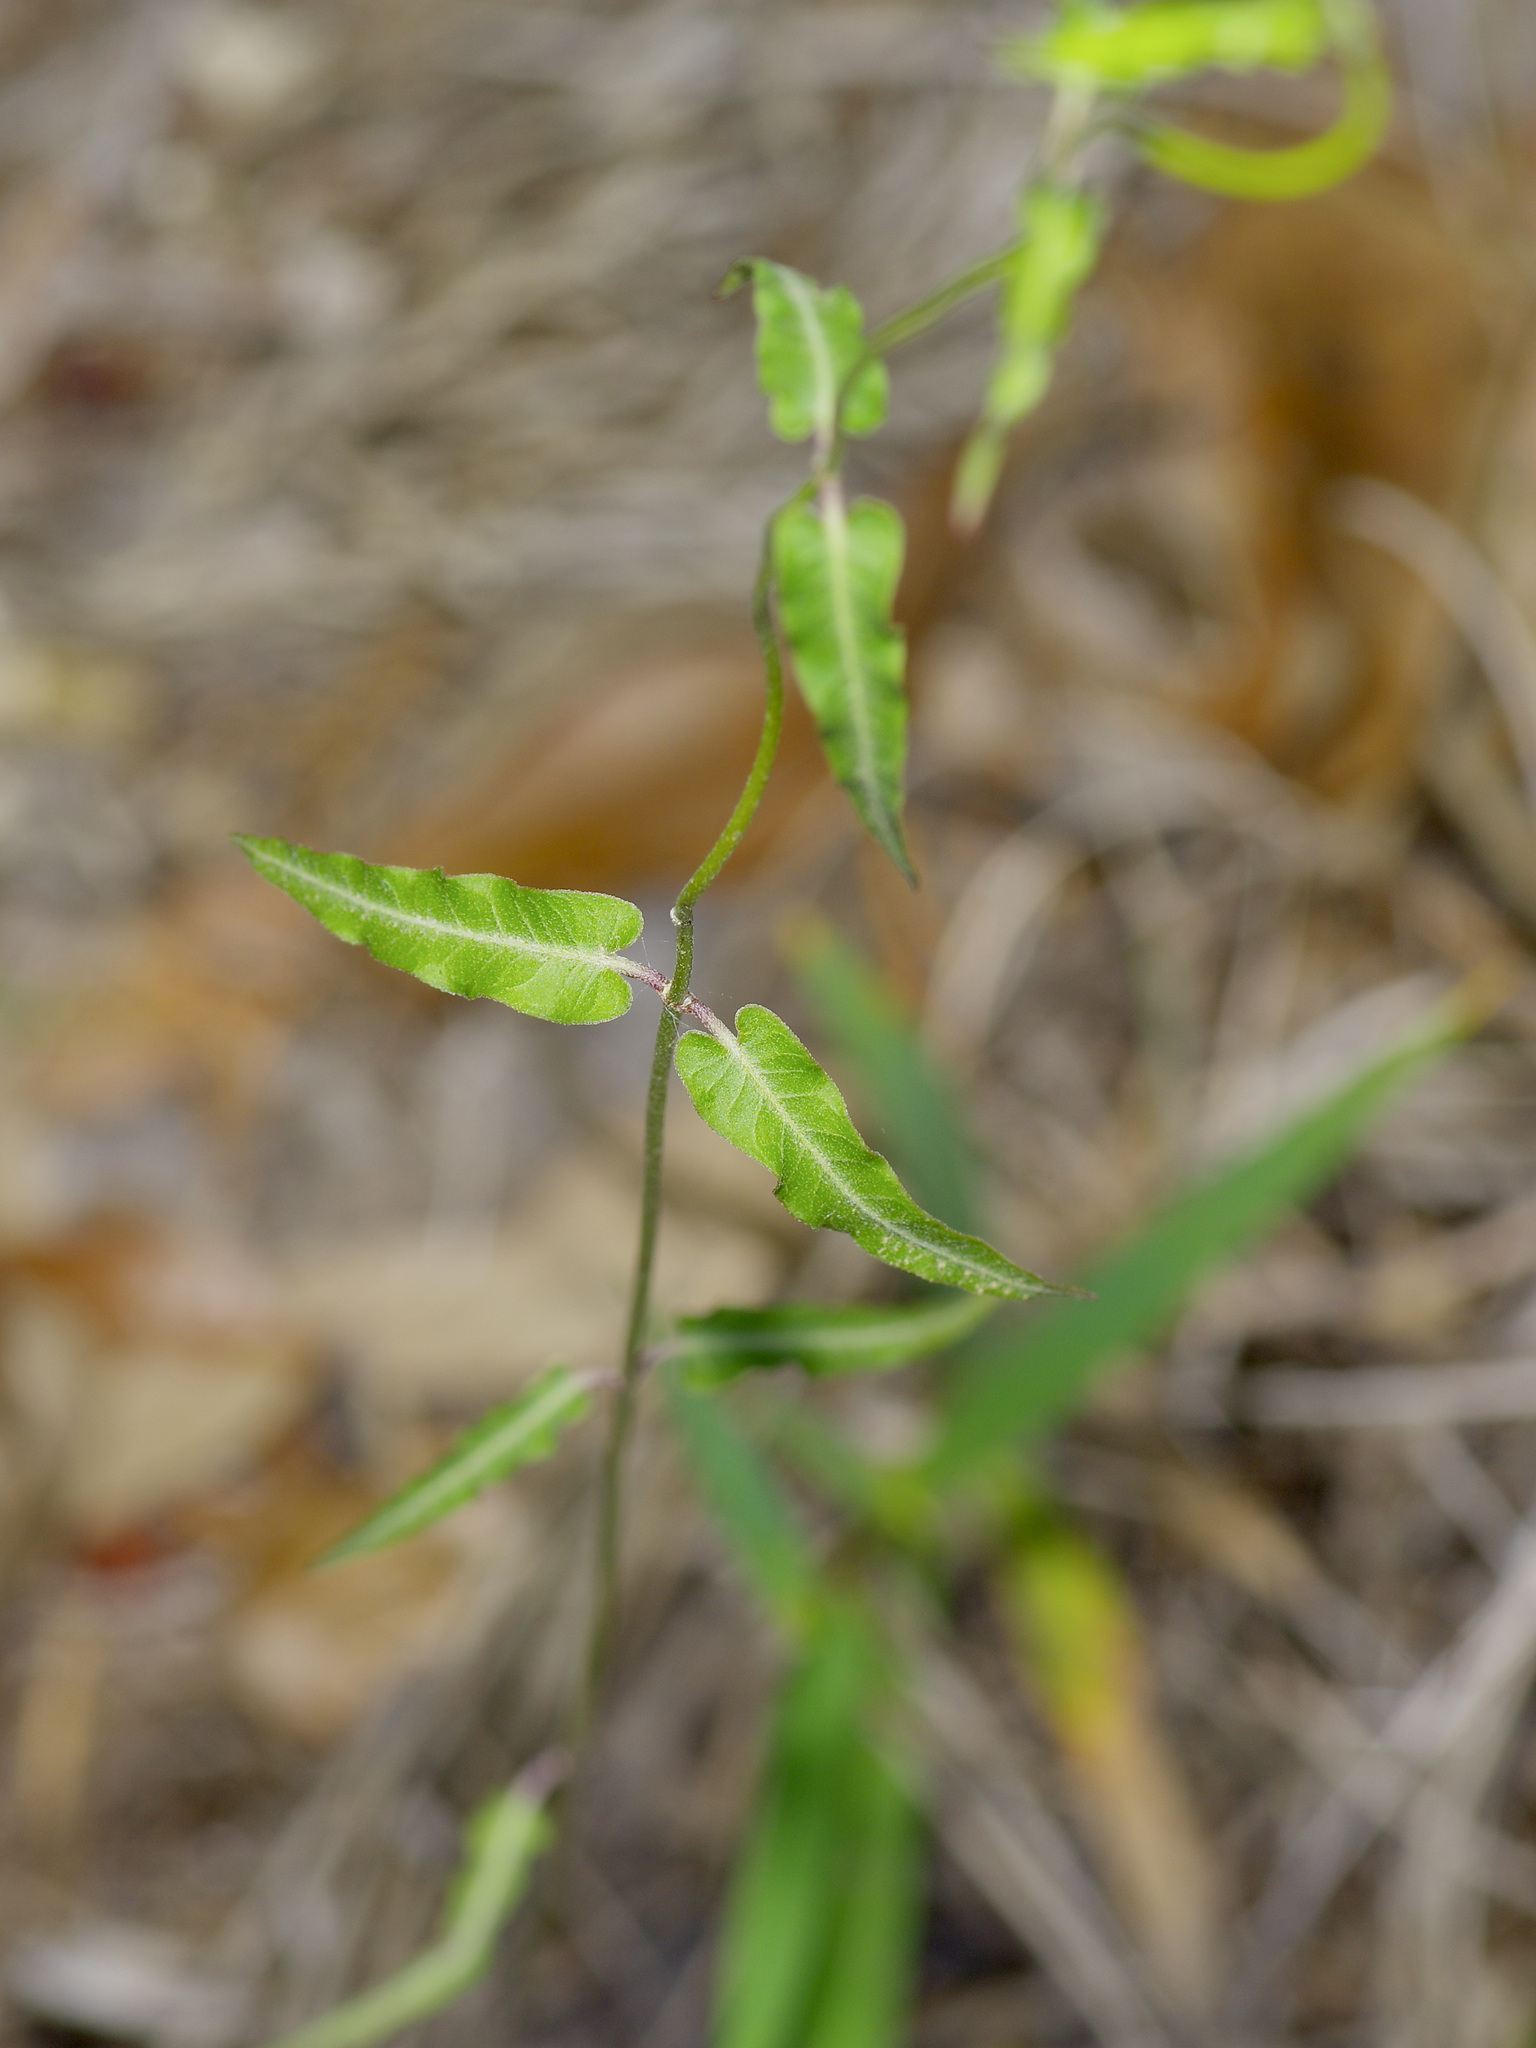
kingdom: Plantae
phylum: Tracheophyta
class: Magnoliopsida
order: Gentianales
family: Apocynaceae
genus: Funastrum
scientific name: Funastrum crispum
